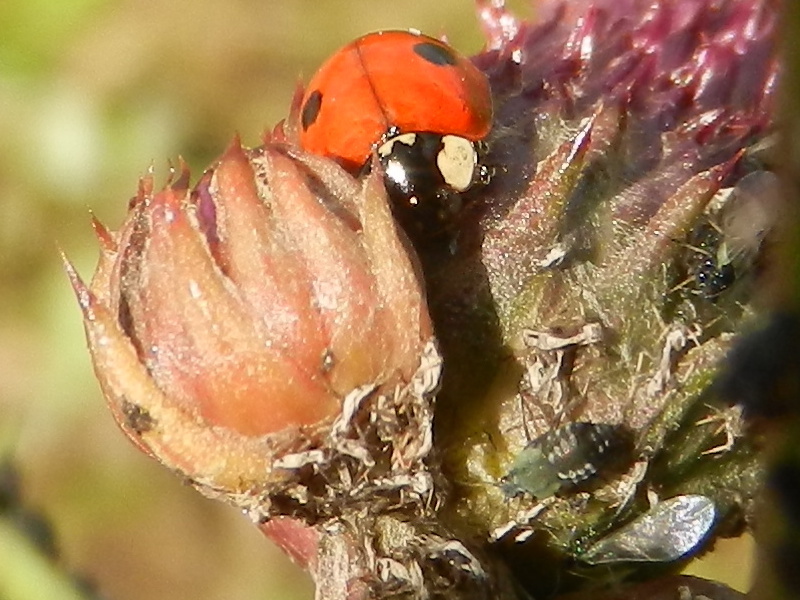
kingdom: Animalia
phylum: Arthropoda
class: Insecta
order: Coleoptera
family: Coccinellidae
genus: Adalia
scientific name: Adalia bipunctata
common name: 2-spot ladybird
